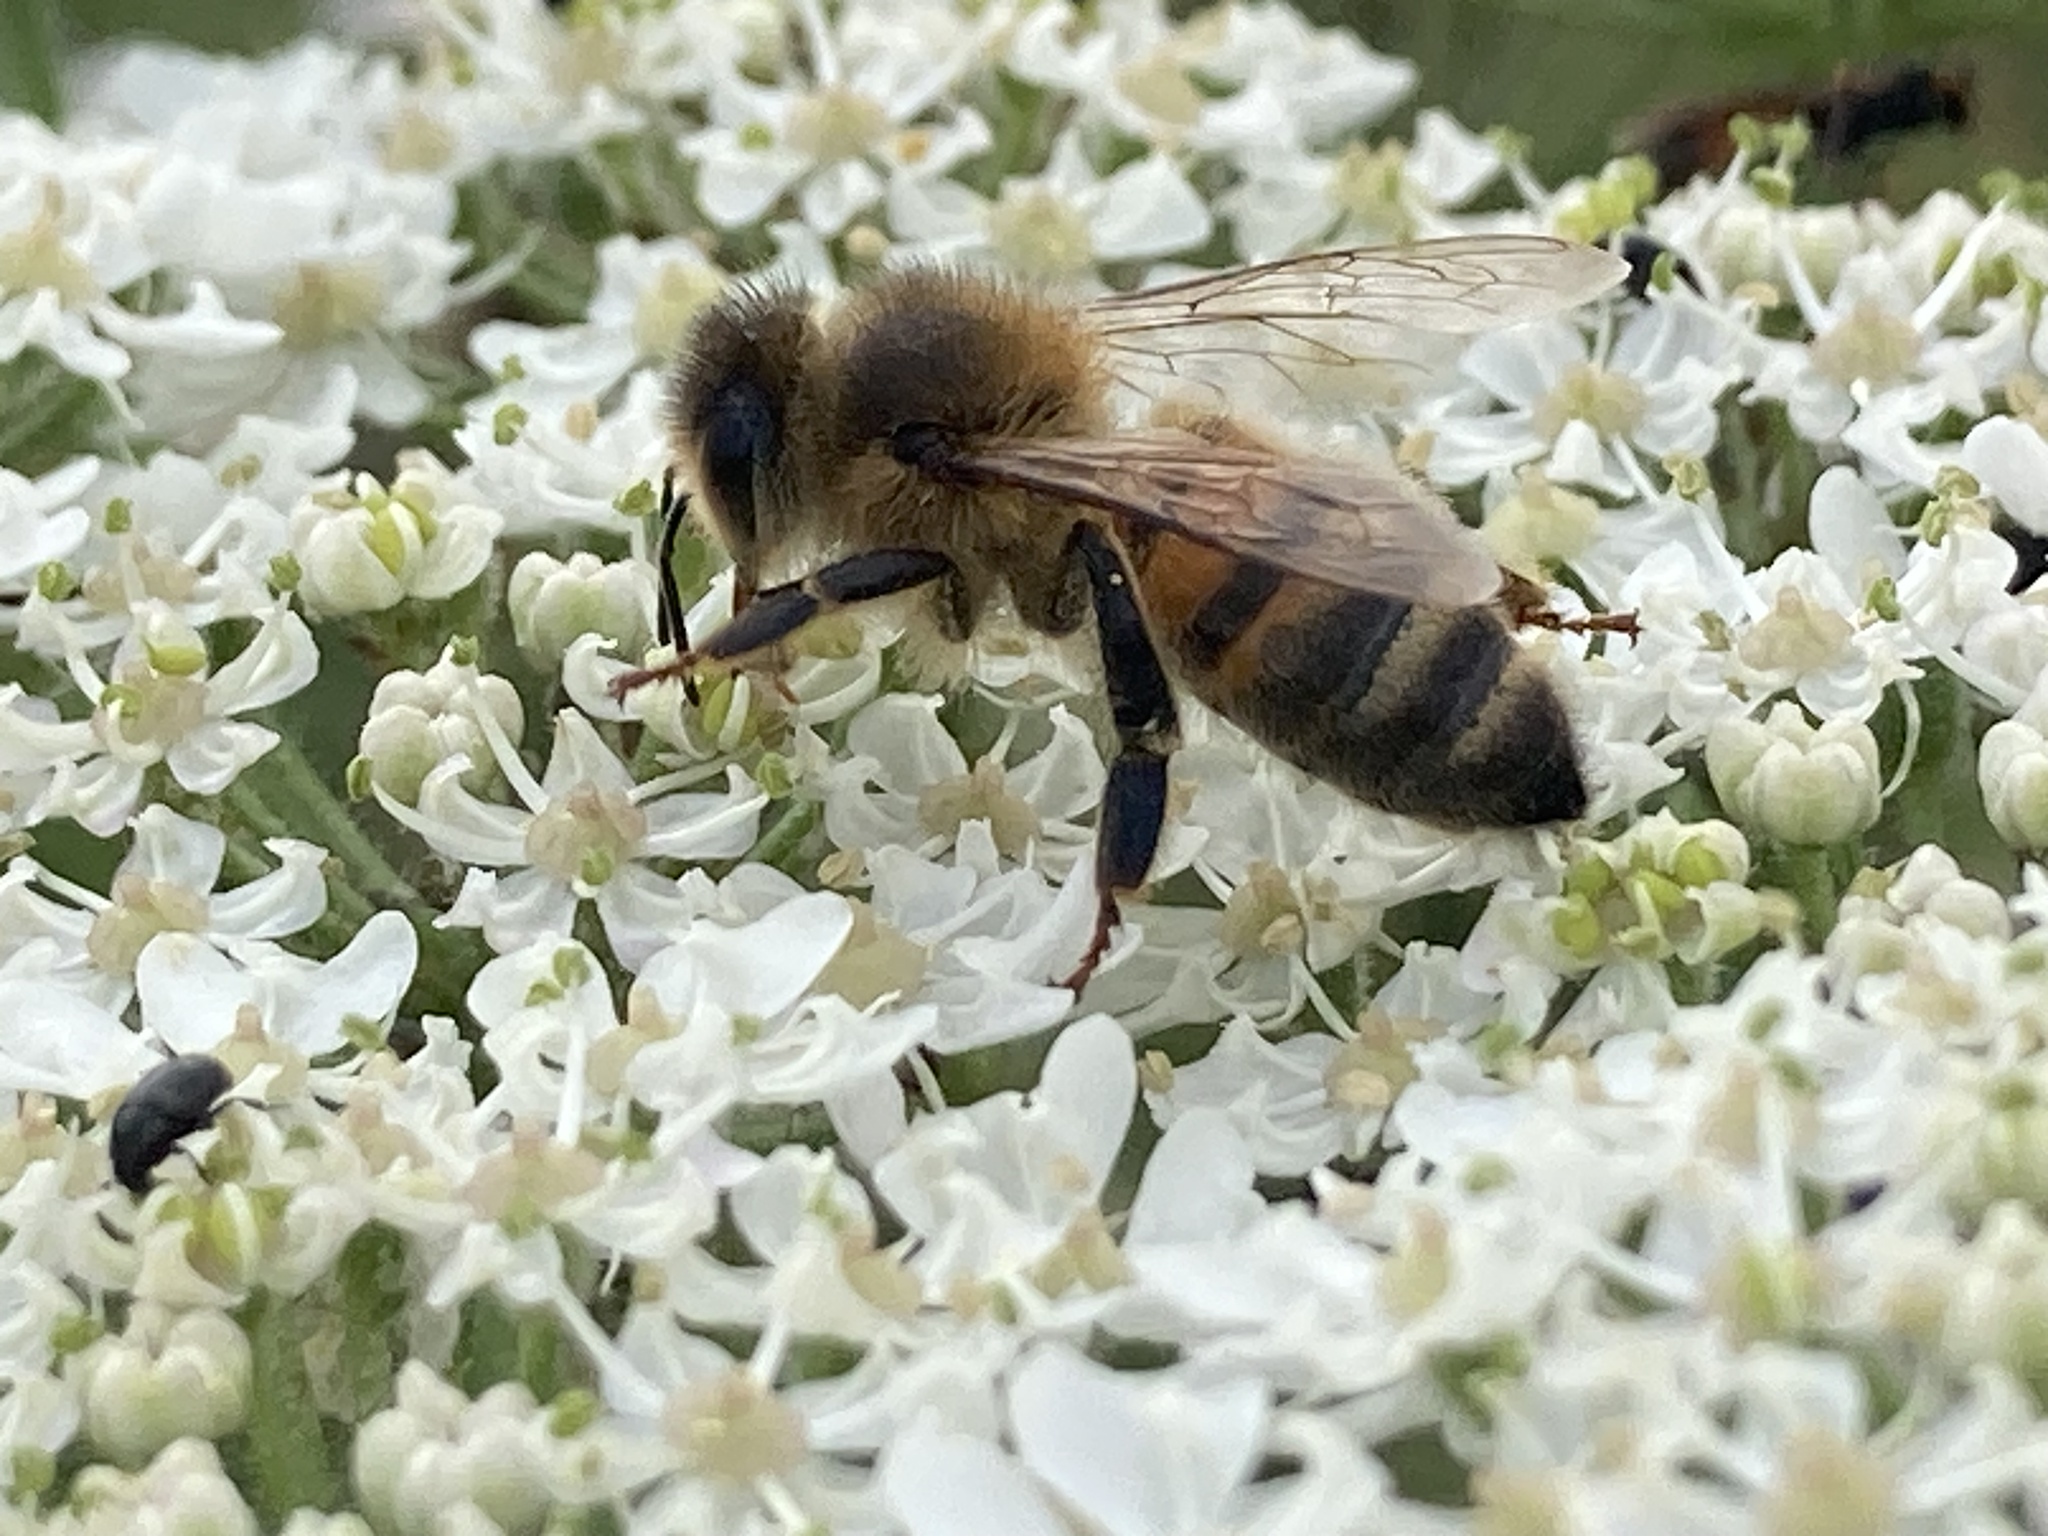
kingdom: Animalia
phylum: Arthropoda
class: Insecta
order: Hymenoptera
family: Apidae
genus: Apis
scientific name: Apis mellifera
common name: Honey bee
